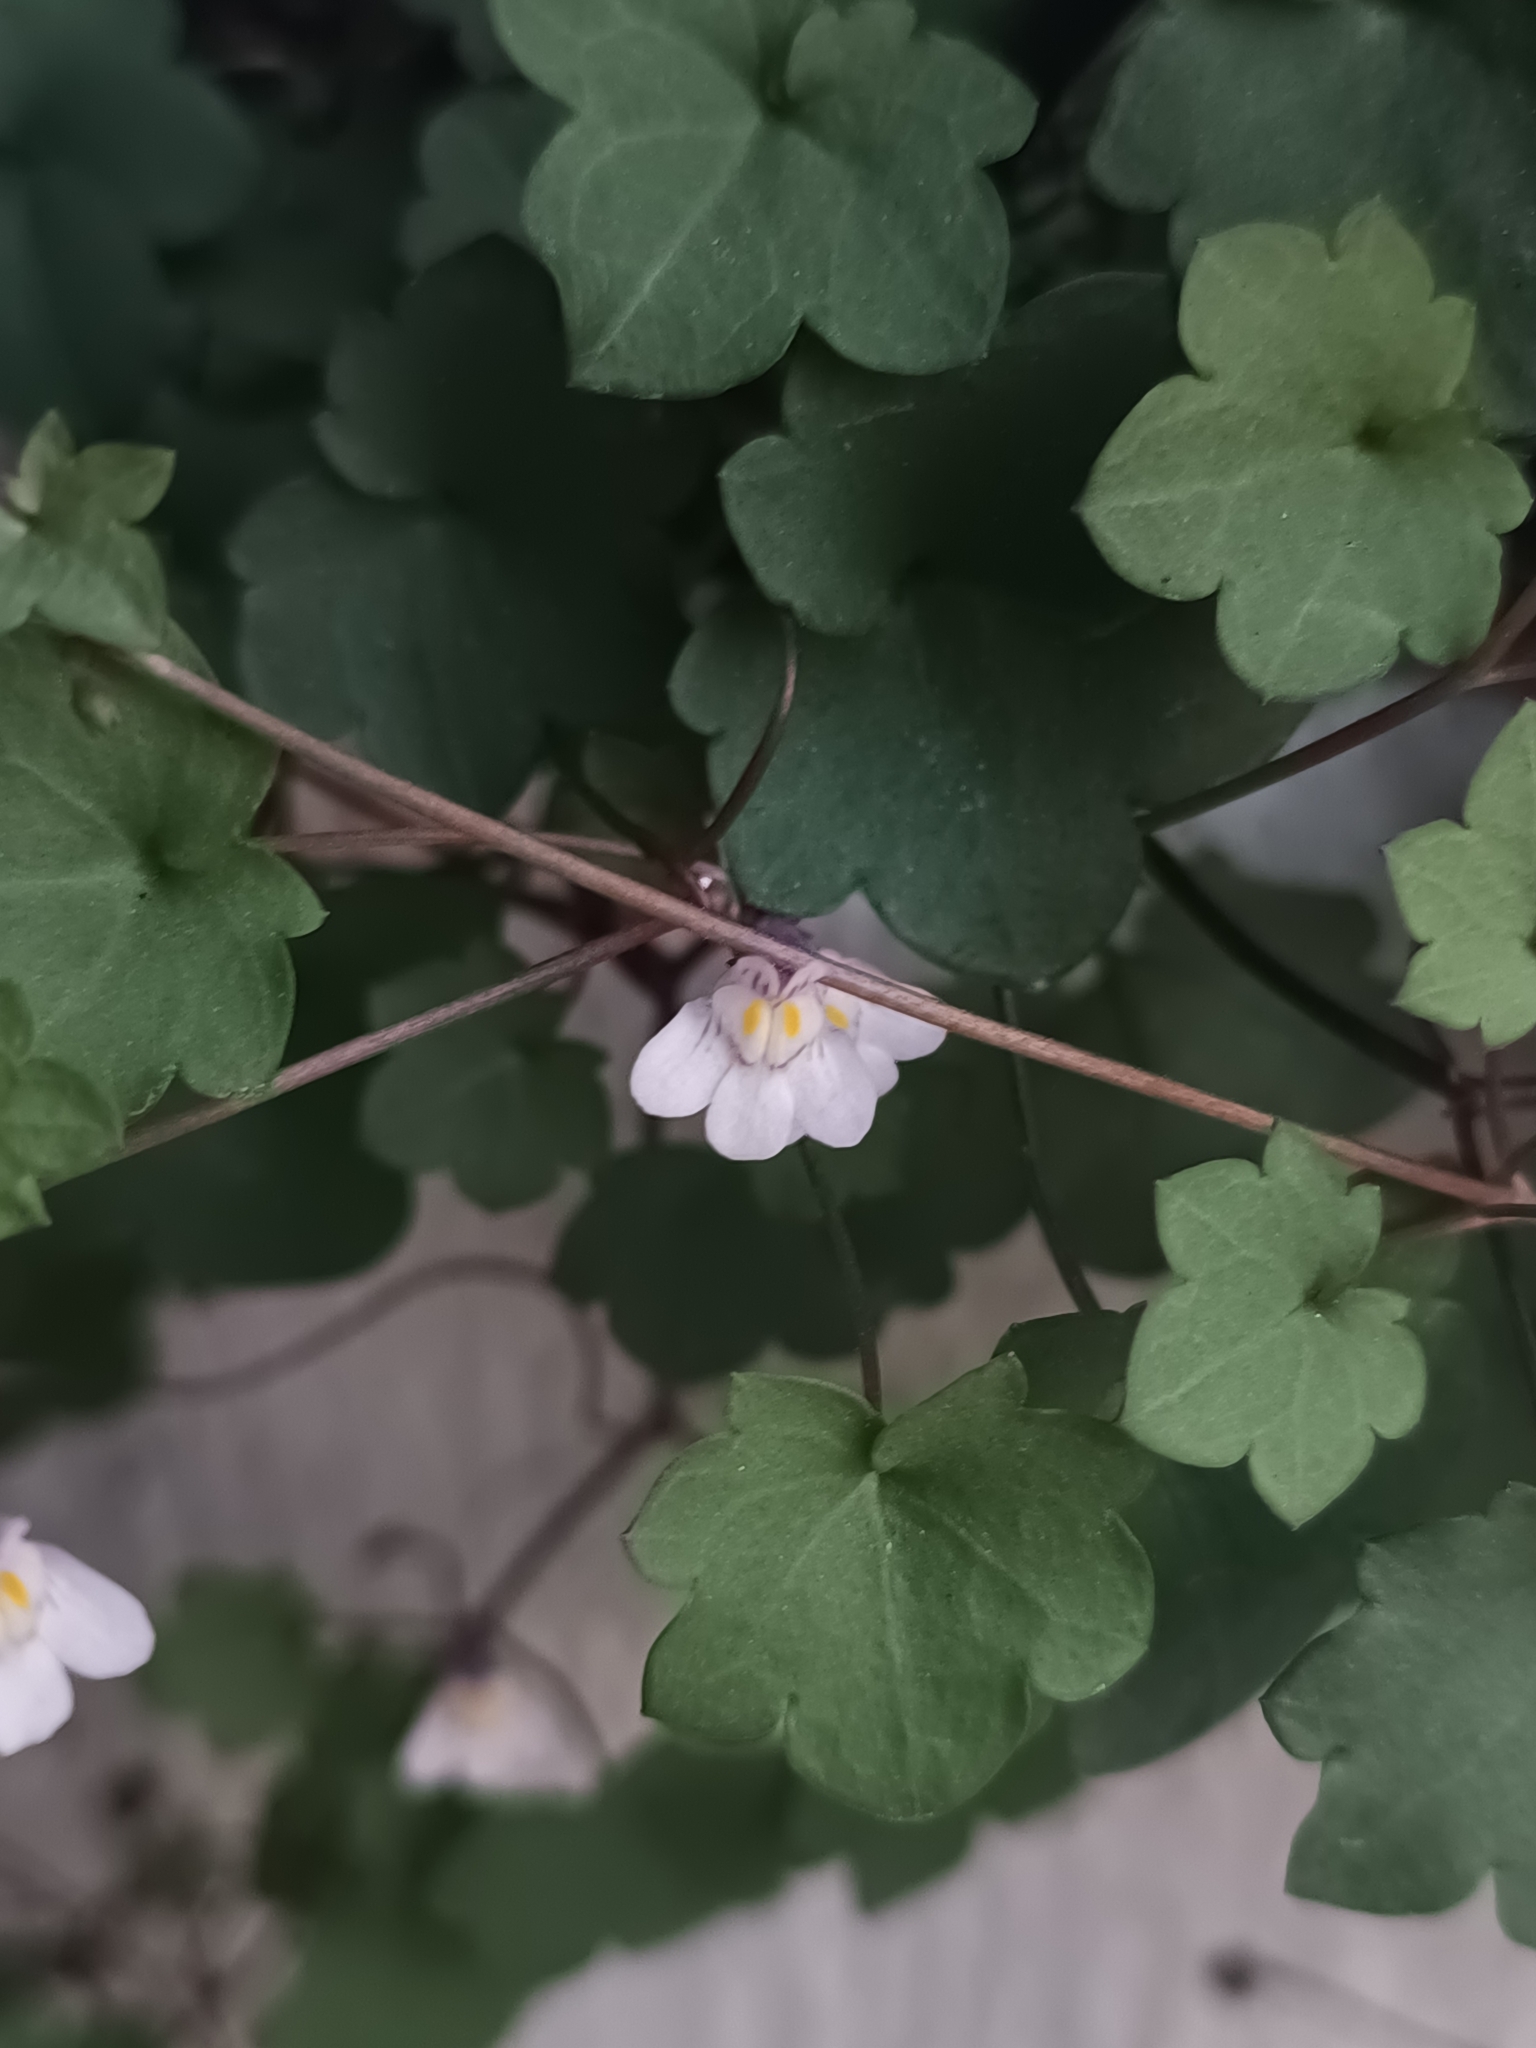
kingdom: Plantae
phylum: Tracheophyta
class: Magnoliopsida
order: Lamiales
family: Plantaginaceae
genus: Cymbalaria
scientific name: Cymbalaria muralis
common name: Ivy-leaved toadflax
